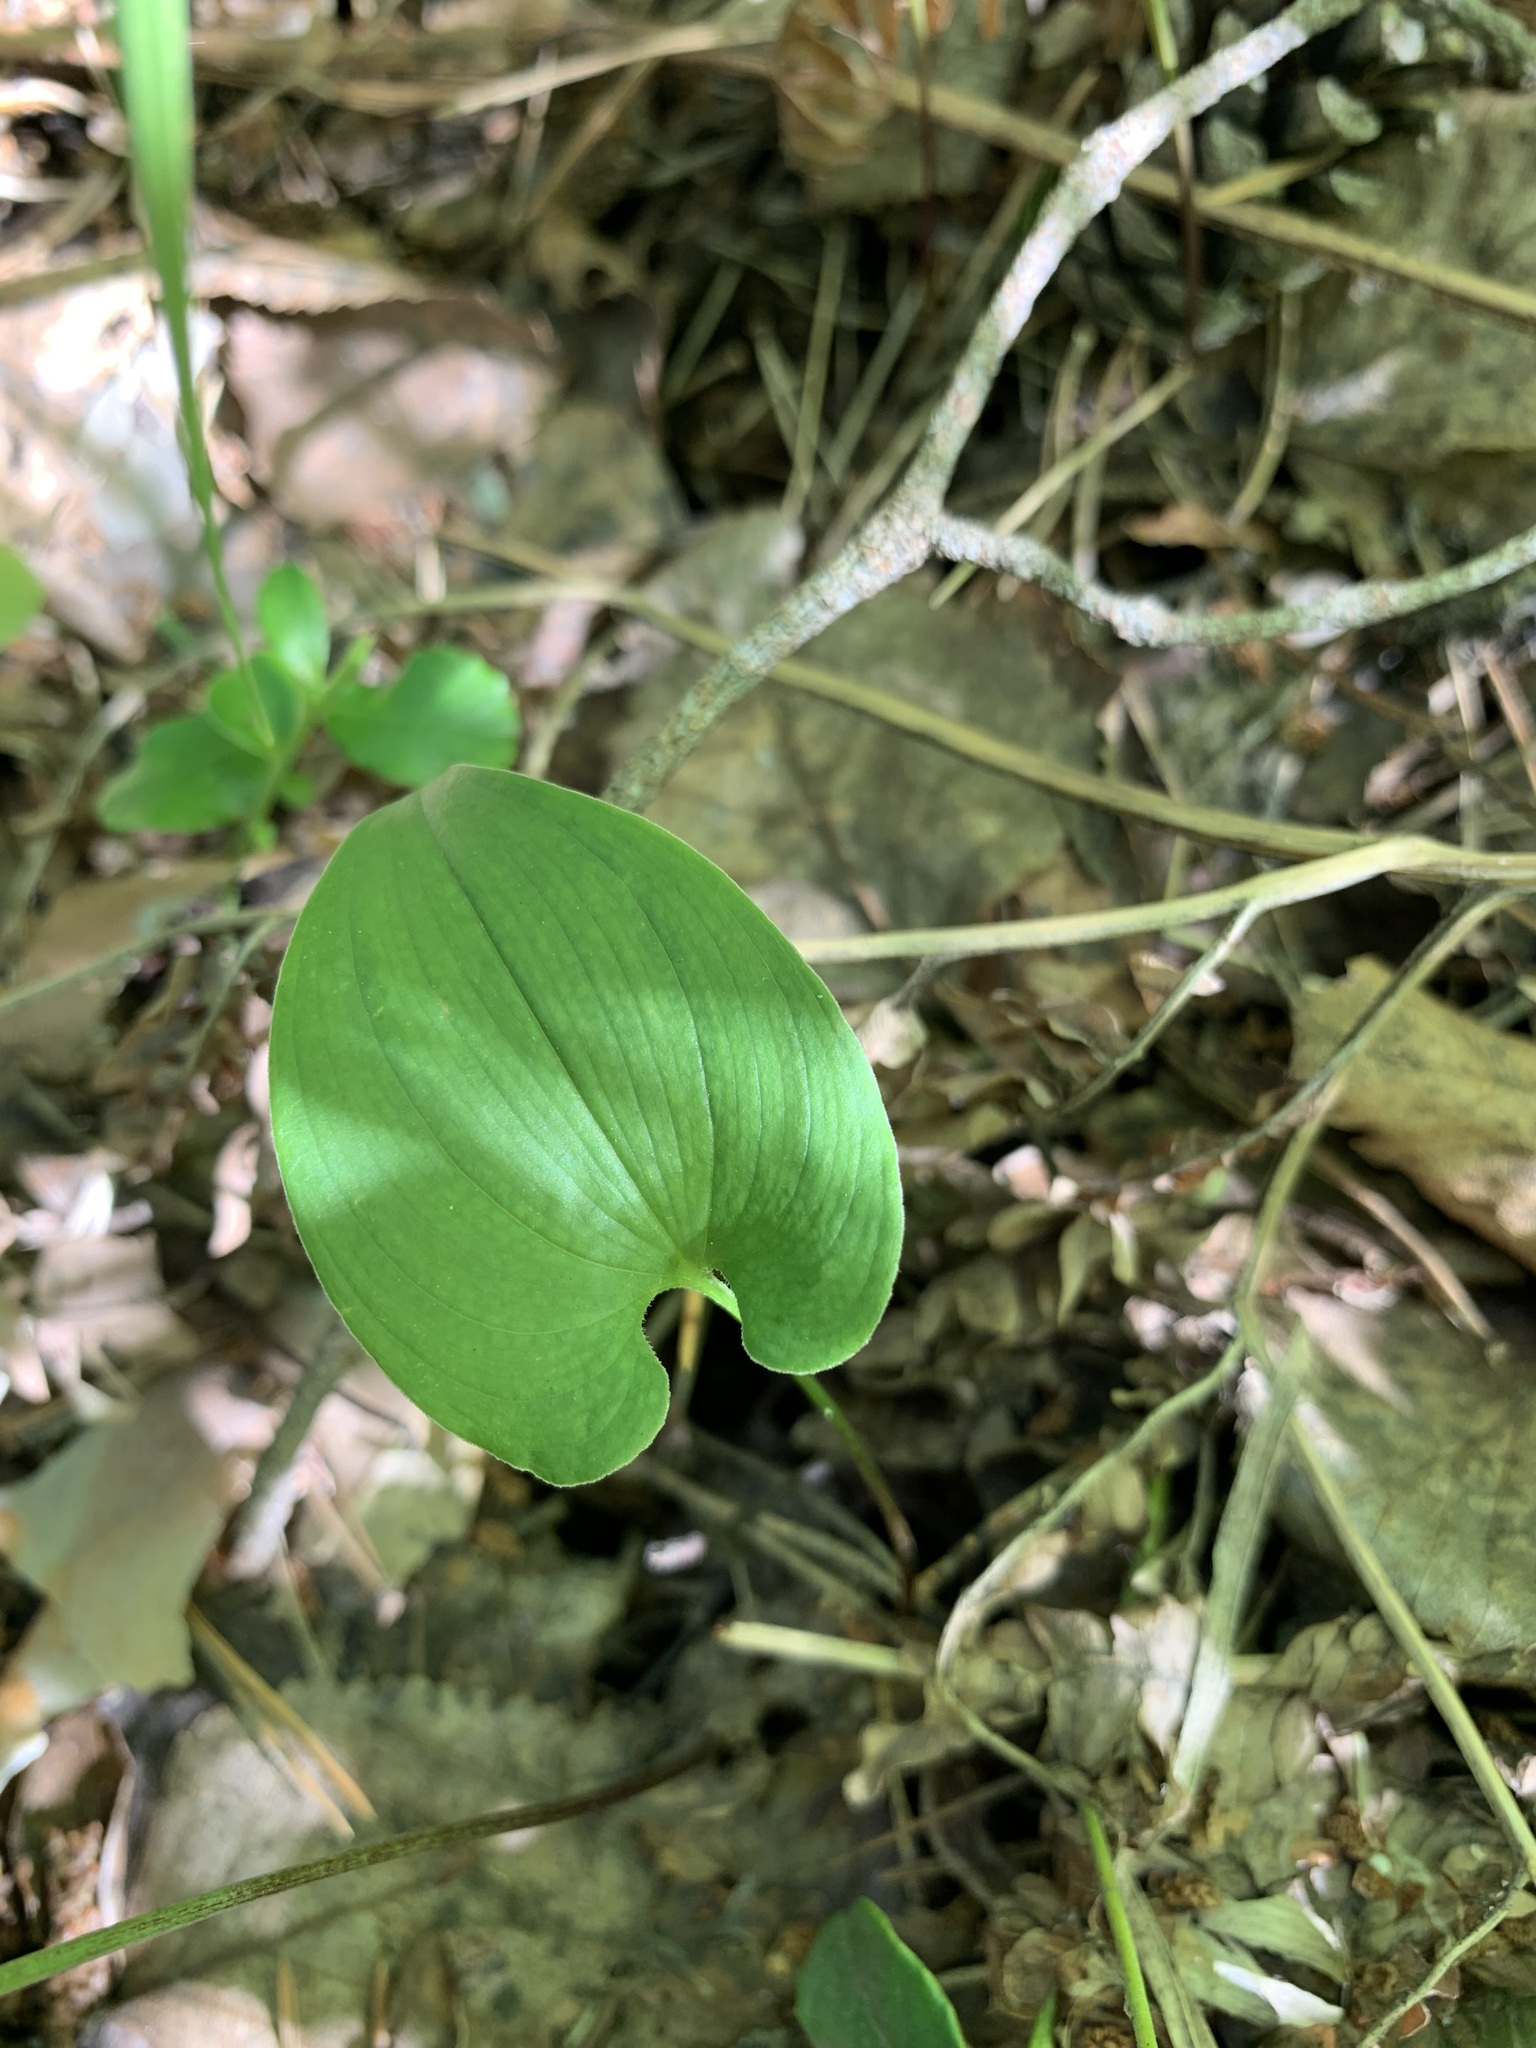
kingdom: Plantae
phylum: Tracheophyta
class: Liliopsida
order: Asparagales
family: Asparagaceae
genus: Maianthemum
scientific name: Maianthemum bifolium
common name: May lily
